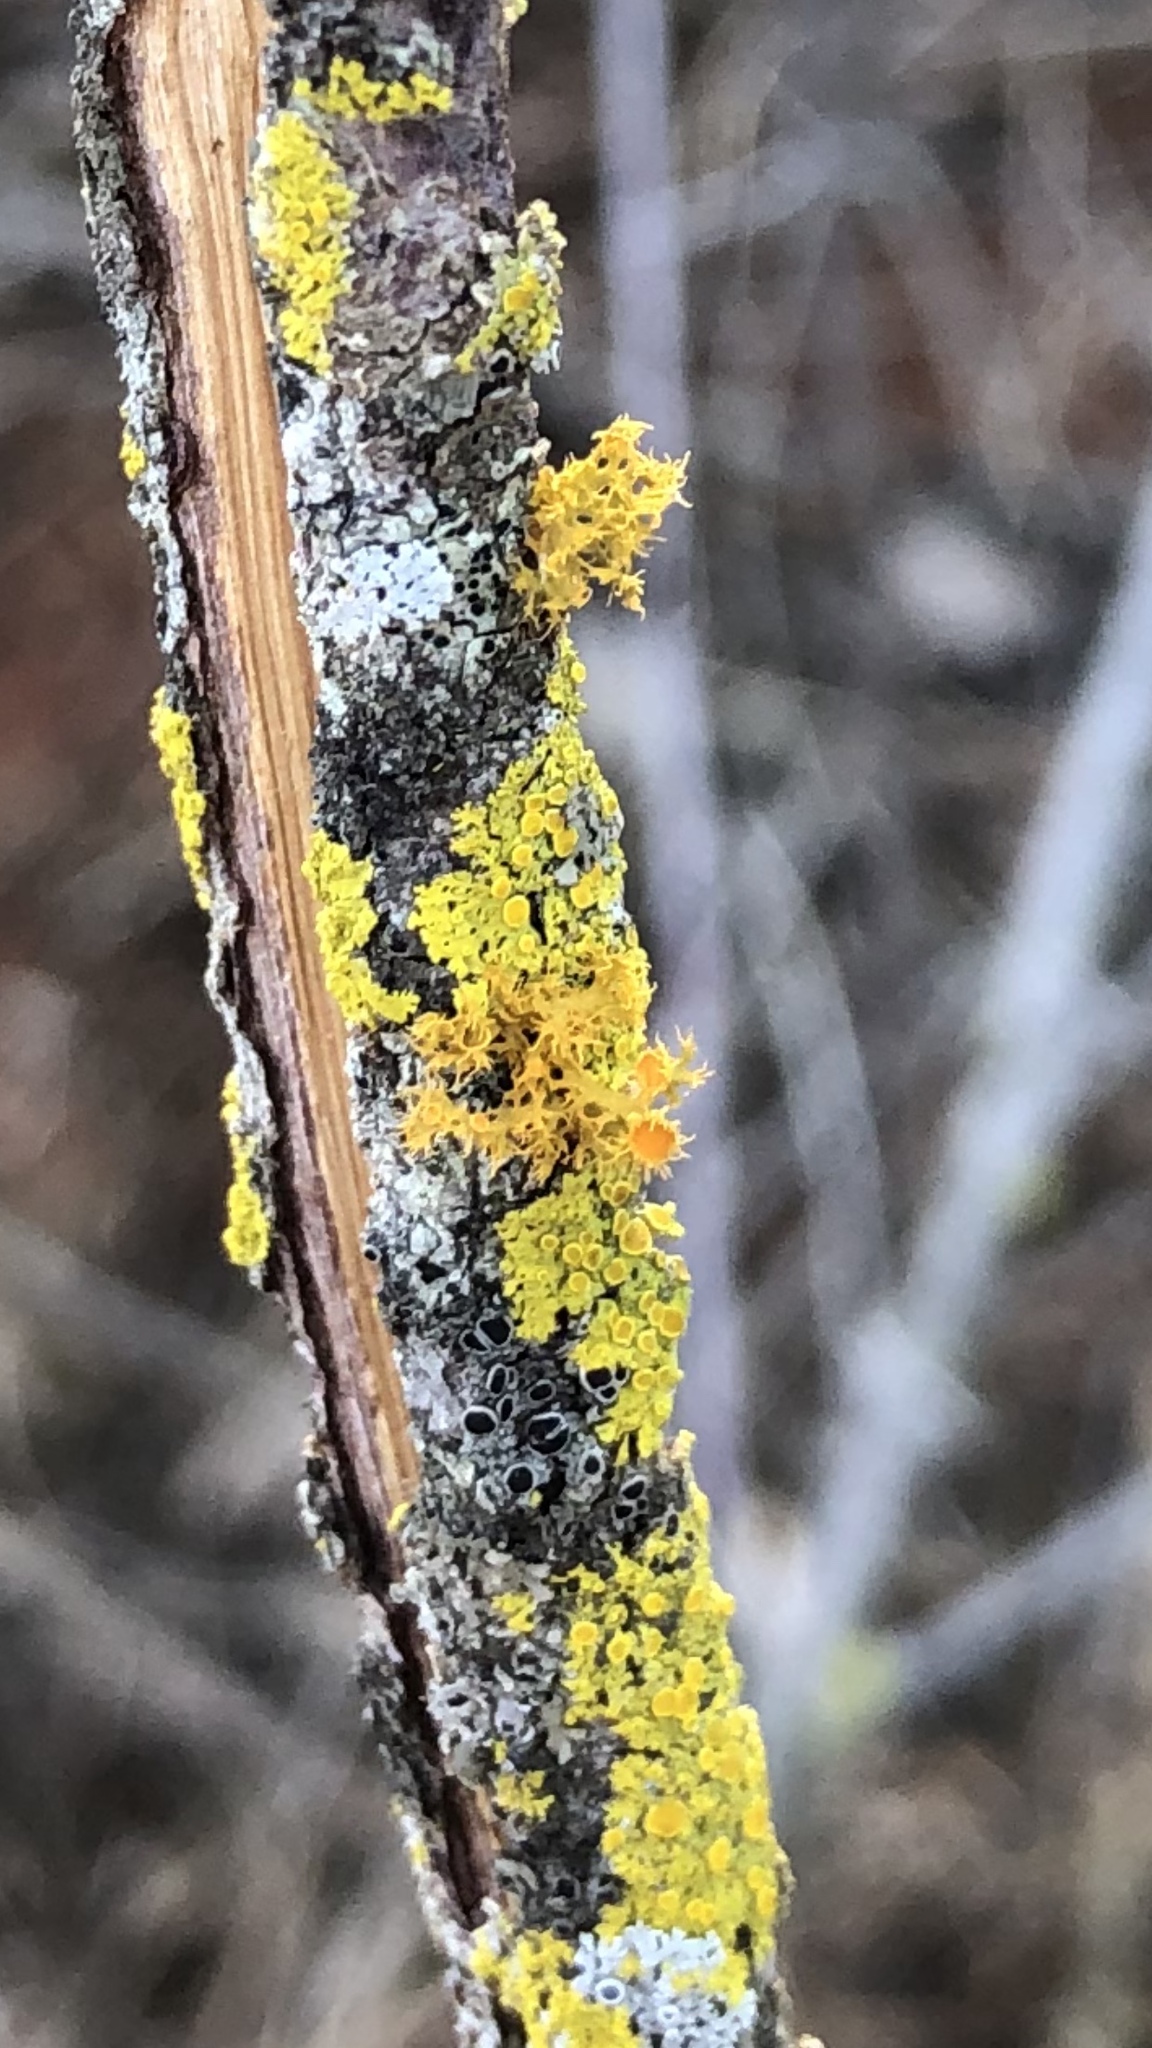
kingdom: Fungi
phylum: Ascomycota
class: Lecanoromycetes
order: Teloschistales
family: Teloschistaceae
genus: Niorma
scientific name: Niorma chrysophthalma
